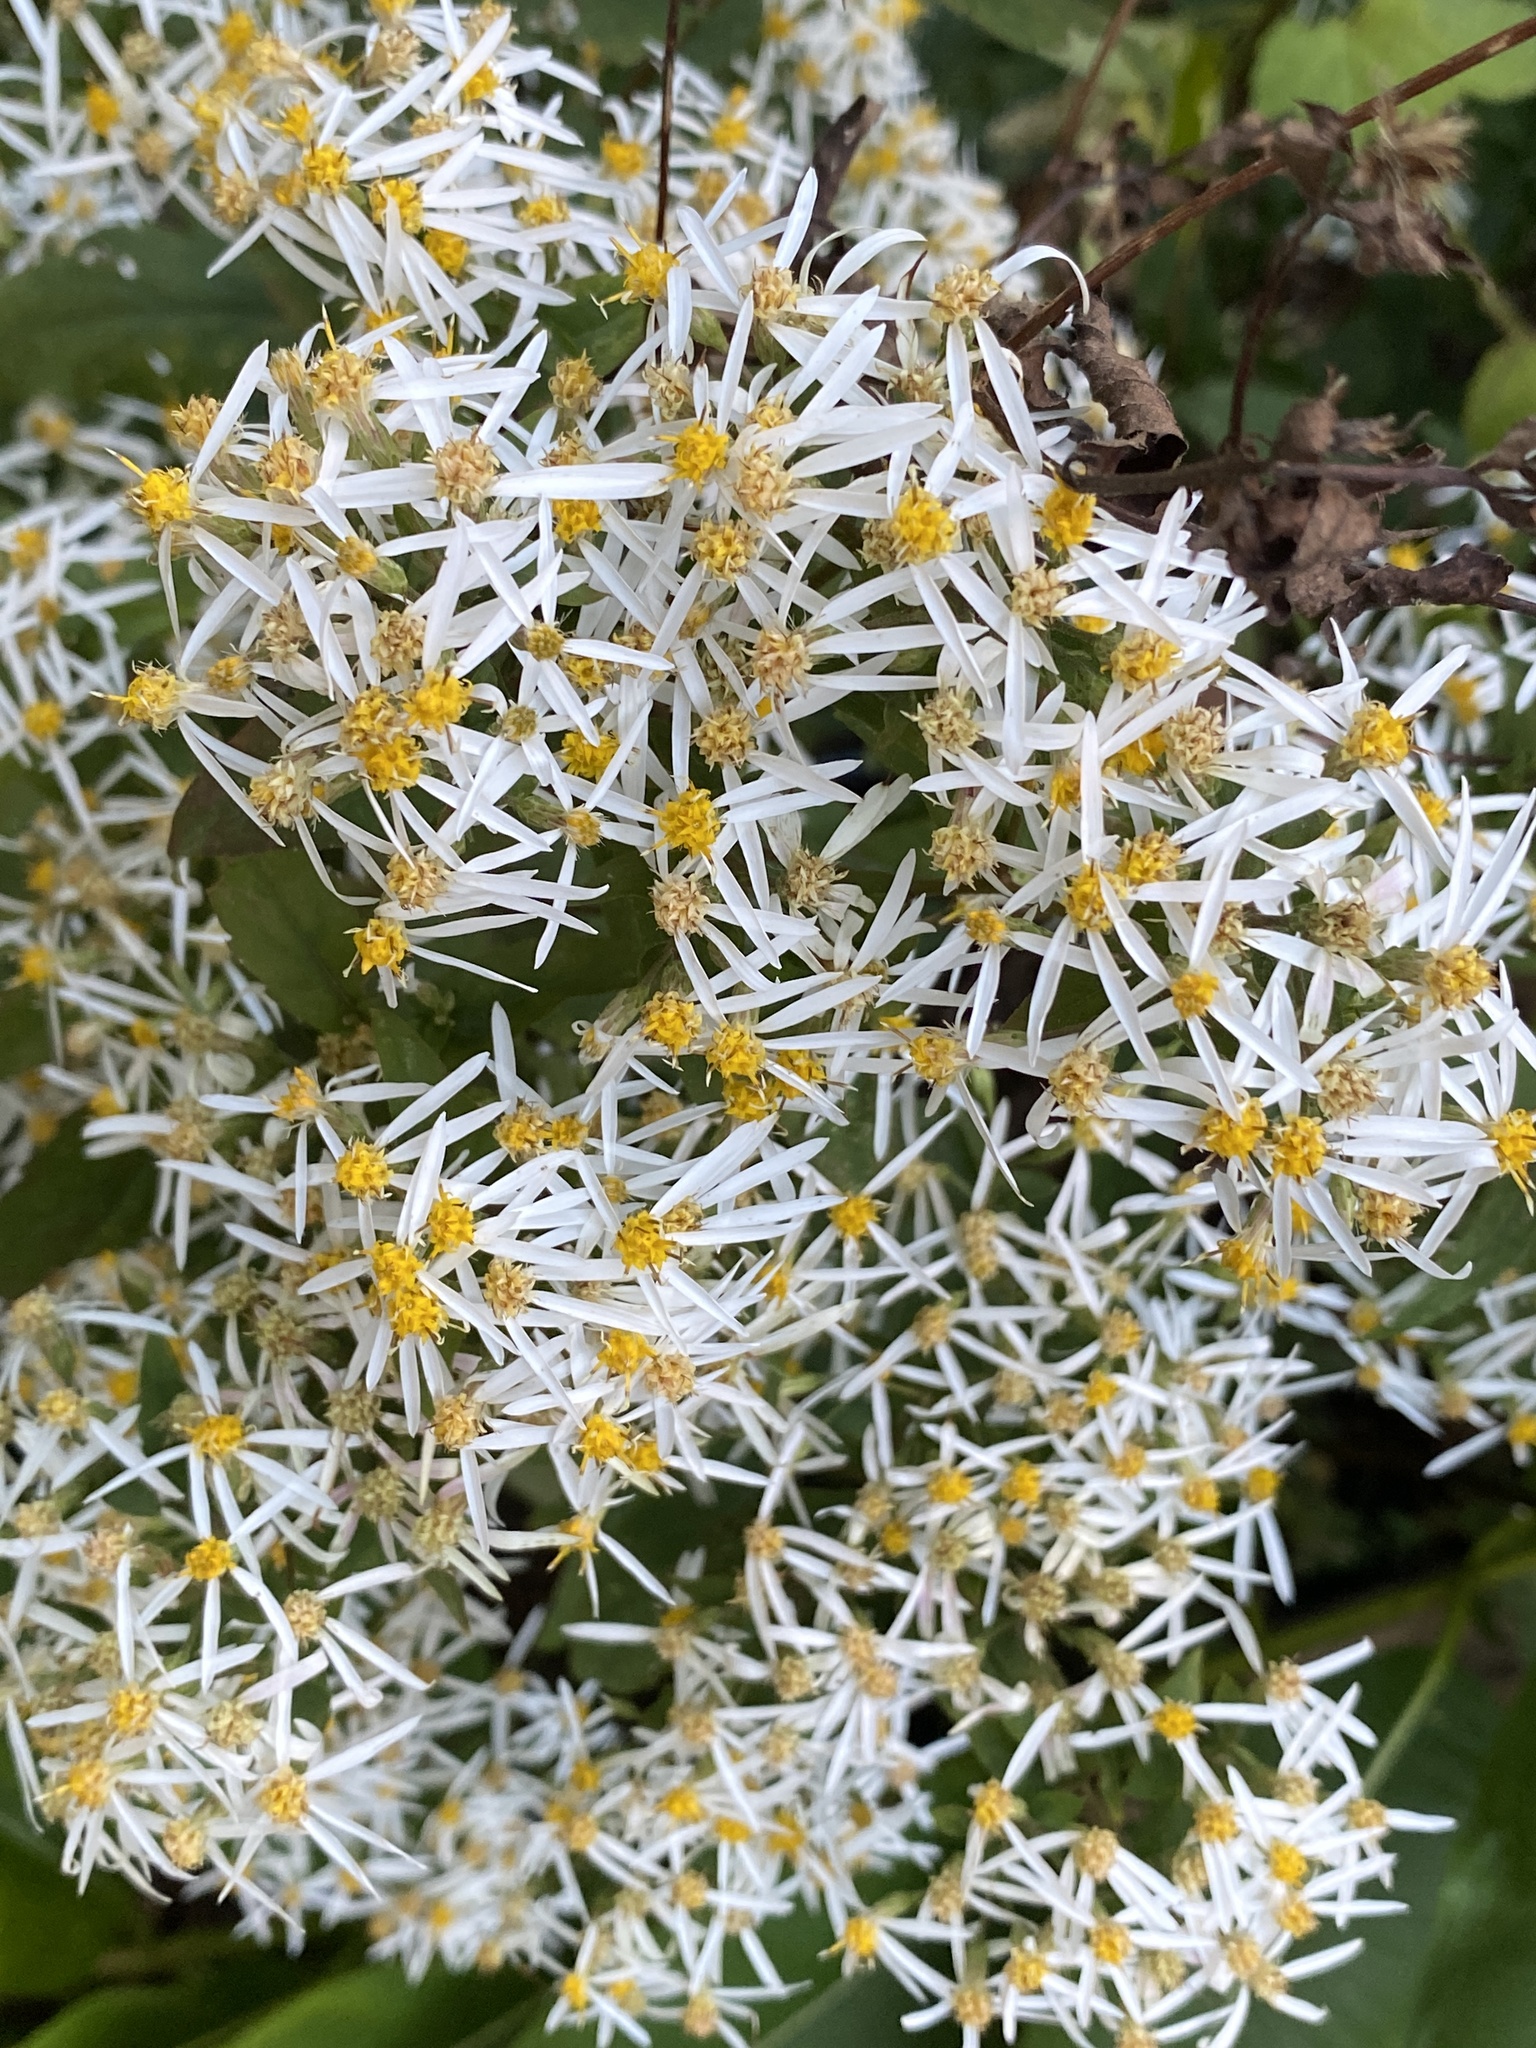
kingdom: Plantae
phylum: Tracheophyta
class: Magnoliopsida
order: Asterales
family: Asteraceae
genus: Eurybia
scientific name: Eurybia divaricata
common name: White wood aster
